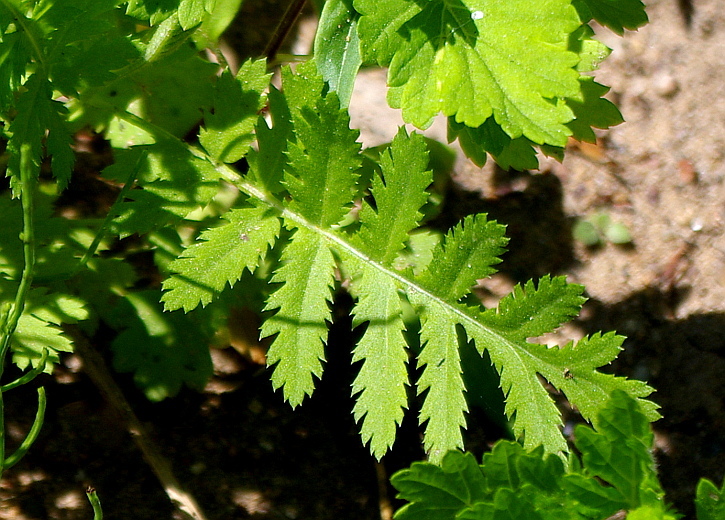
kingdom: Plantae
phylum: Tracheophyta
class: Magnoliopsida
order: Asterales
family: Asteraceae
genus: Tanacetum
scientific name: Tanacetum vulgare
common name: Common tansy
